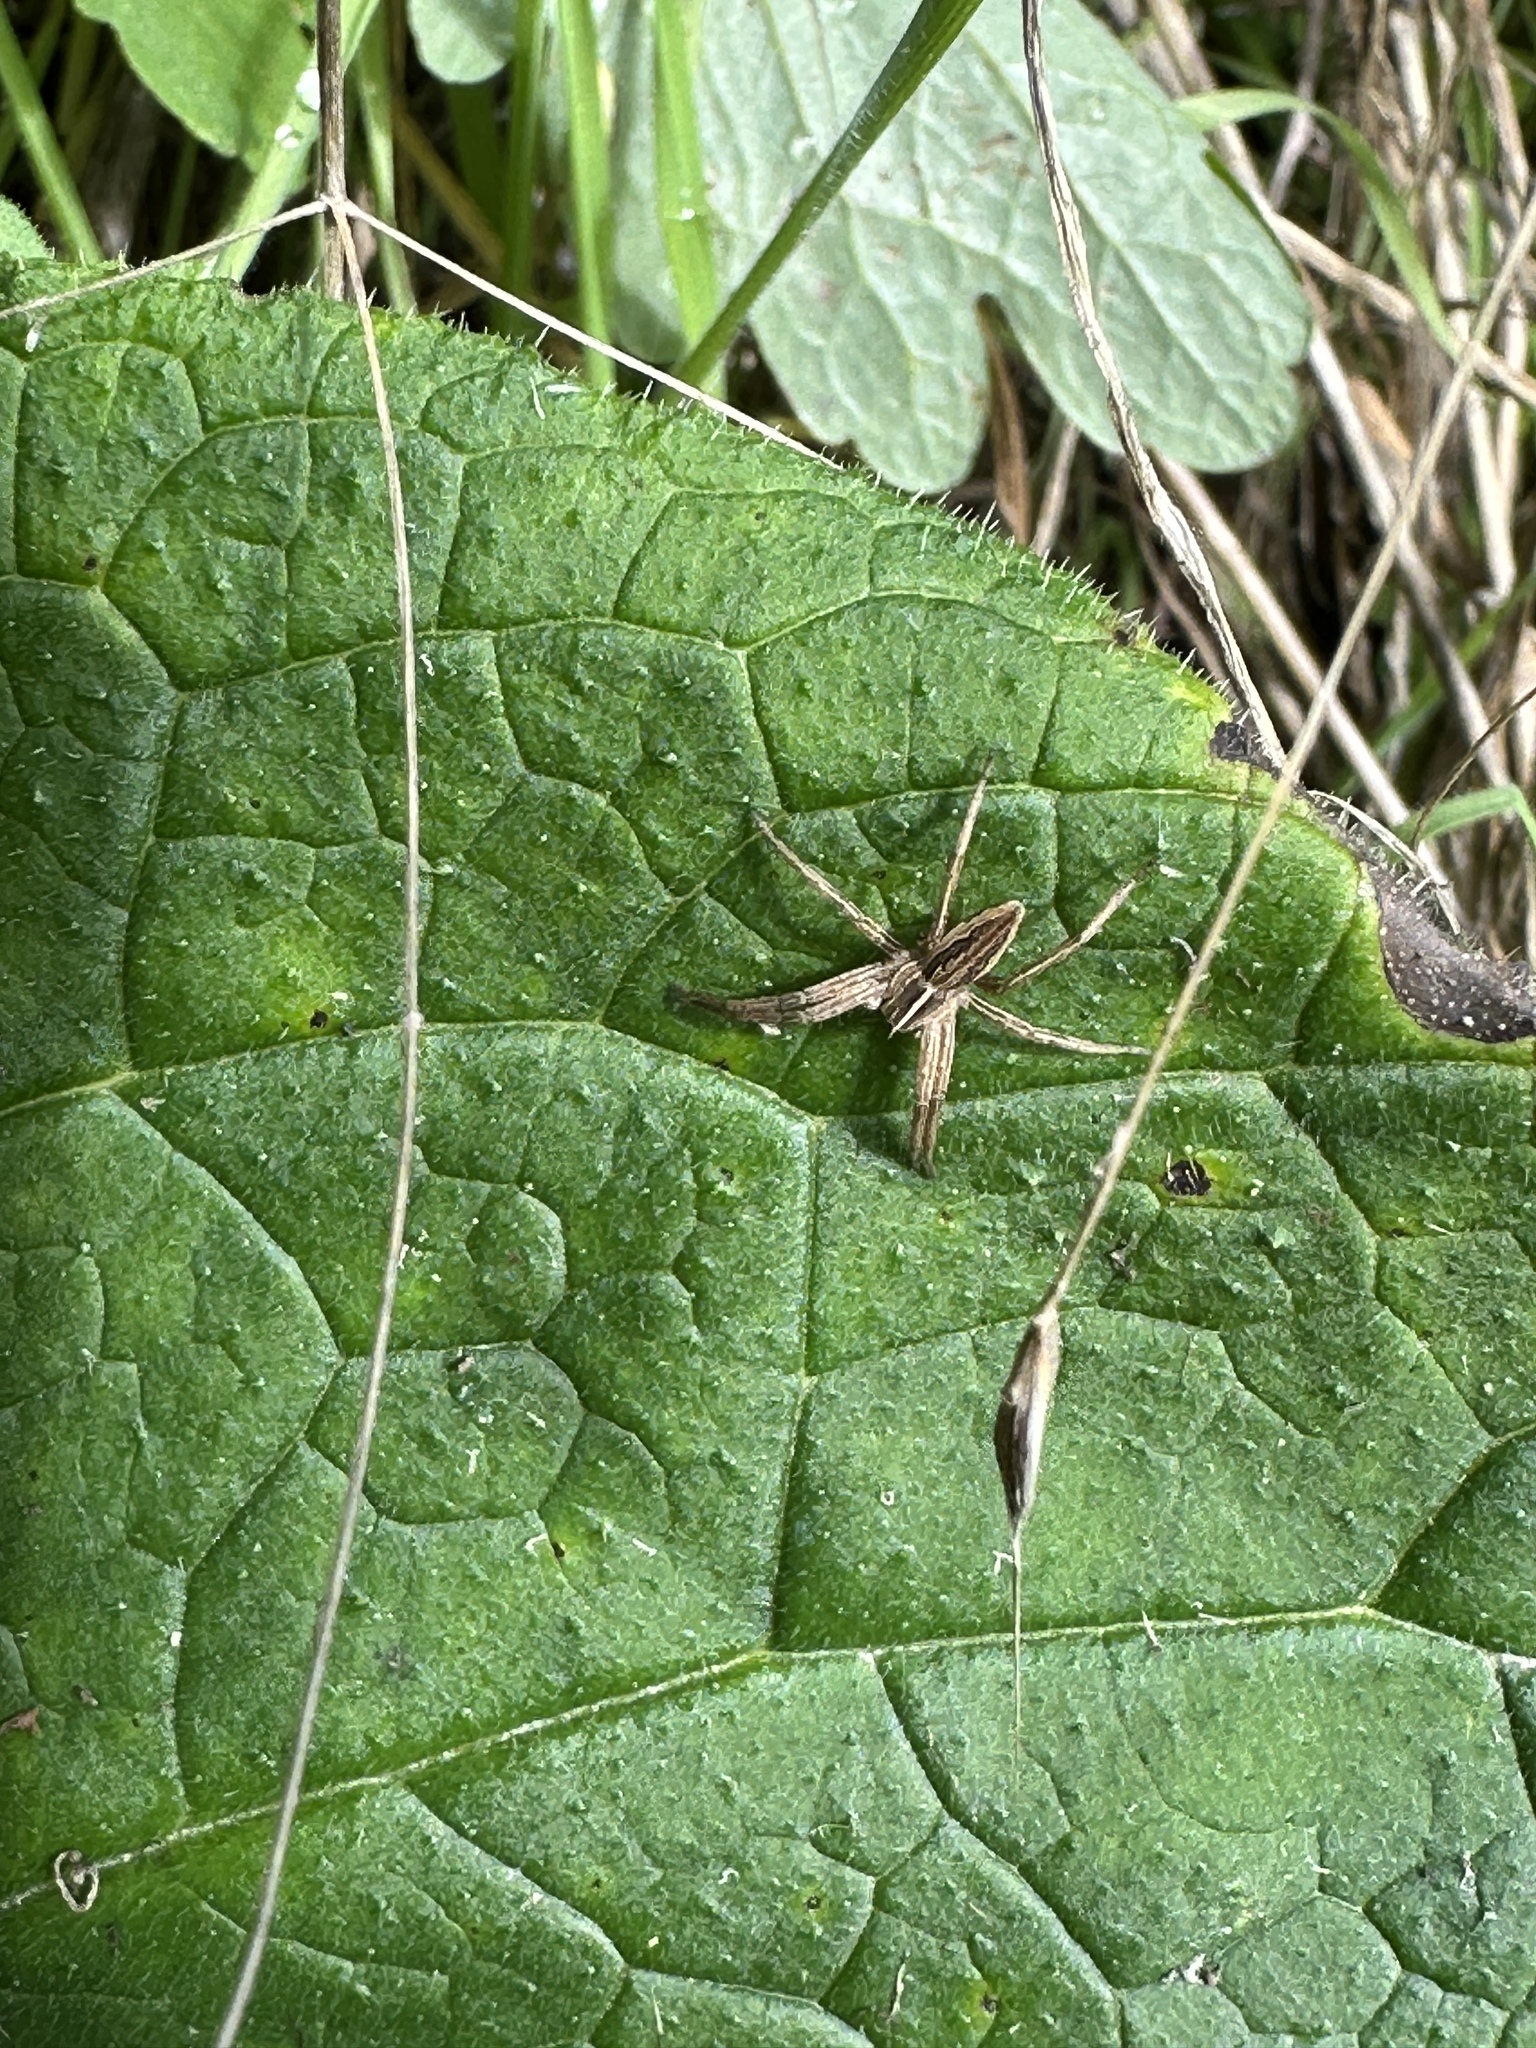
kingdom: Animalia
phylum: Arthropoda
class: Arachnida
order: Araneae
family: Pisauridae
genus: Pisaura
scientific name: Pisaura mirabilis
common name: Tent spider
